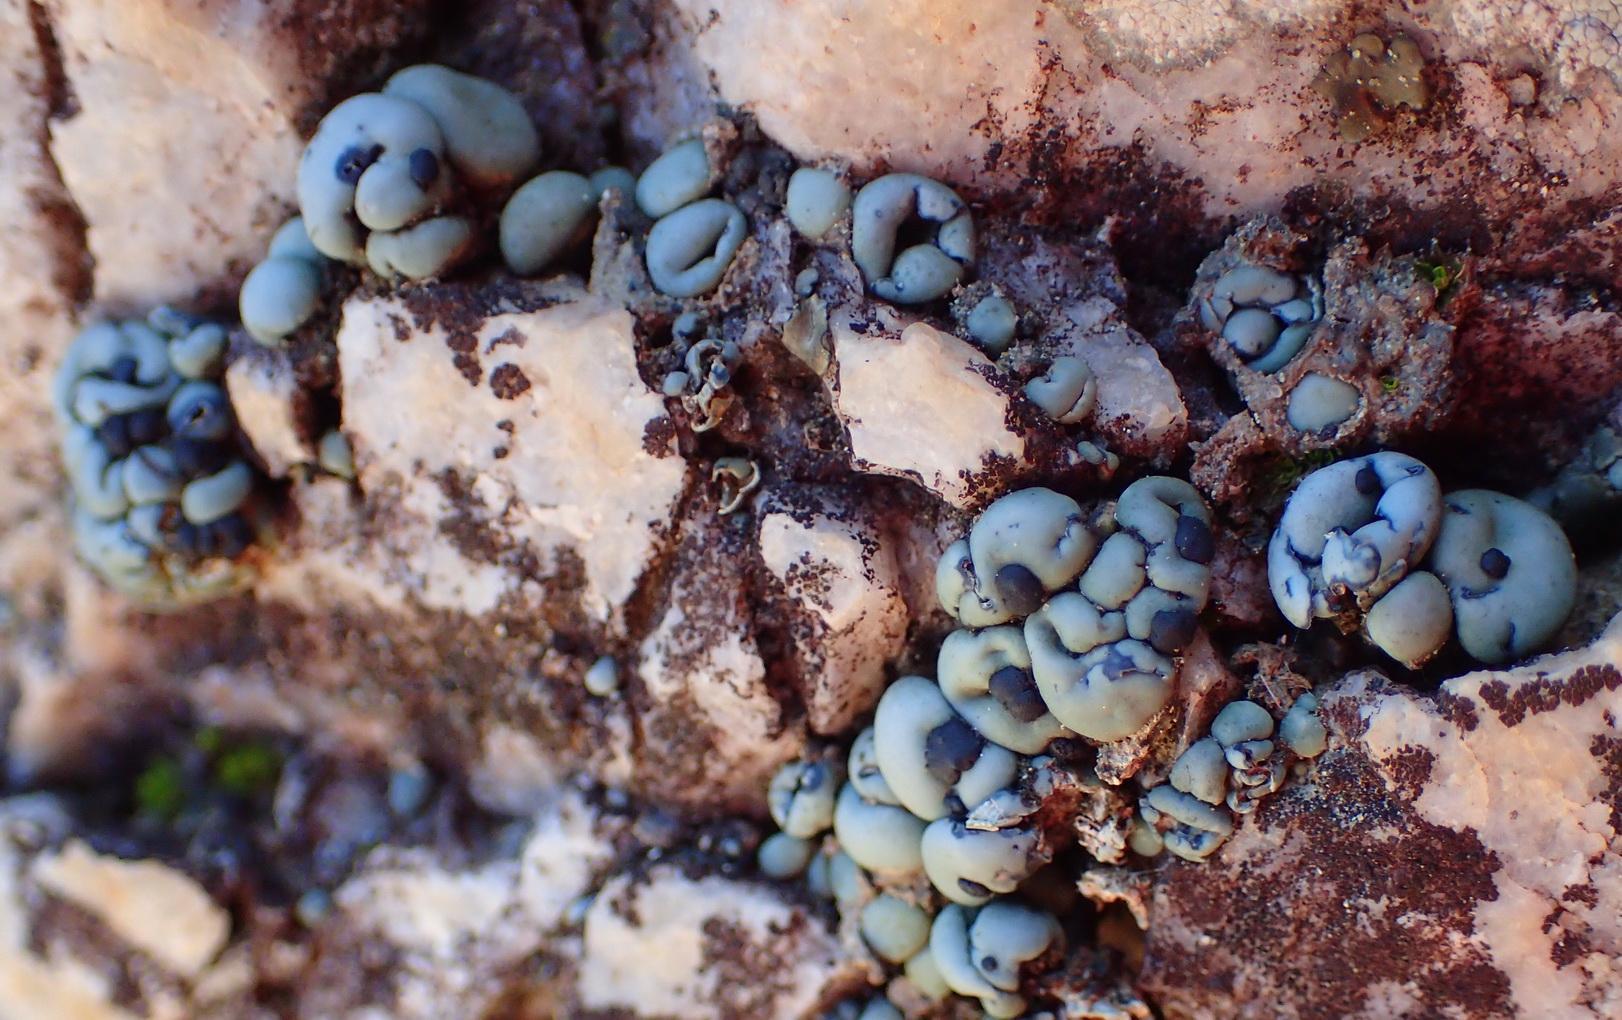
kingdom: Fungi
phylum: Ascomycota
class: Lecanoromycetes
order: Lecanorales
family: Ramalinaceae
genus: Rolfidium
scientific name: Rolfidium bumammum
